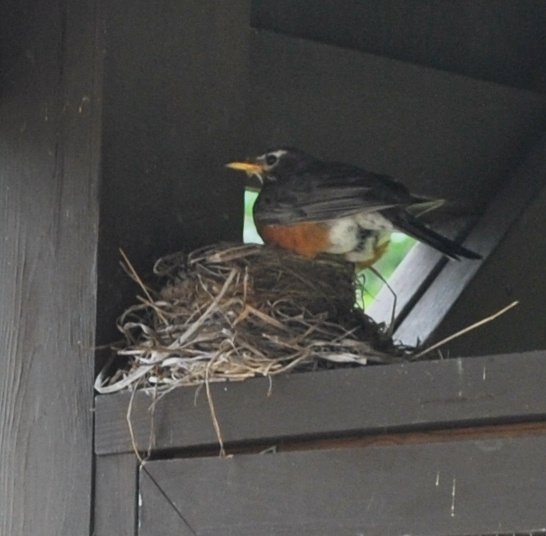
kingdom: Animalia
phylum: Chordata
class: Aves
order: Passeriformes
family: Turdidae
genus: Turdus
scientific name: Turdus migratorius
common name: American robin
